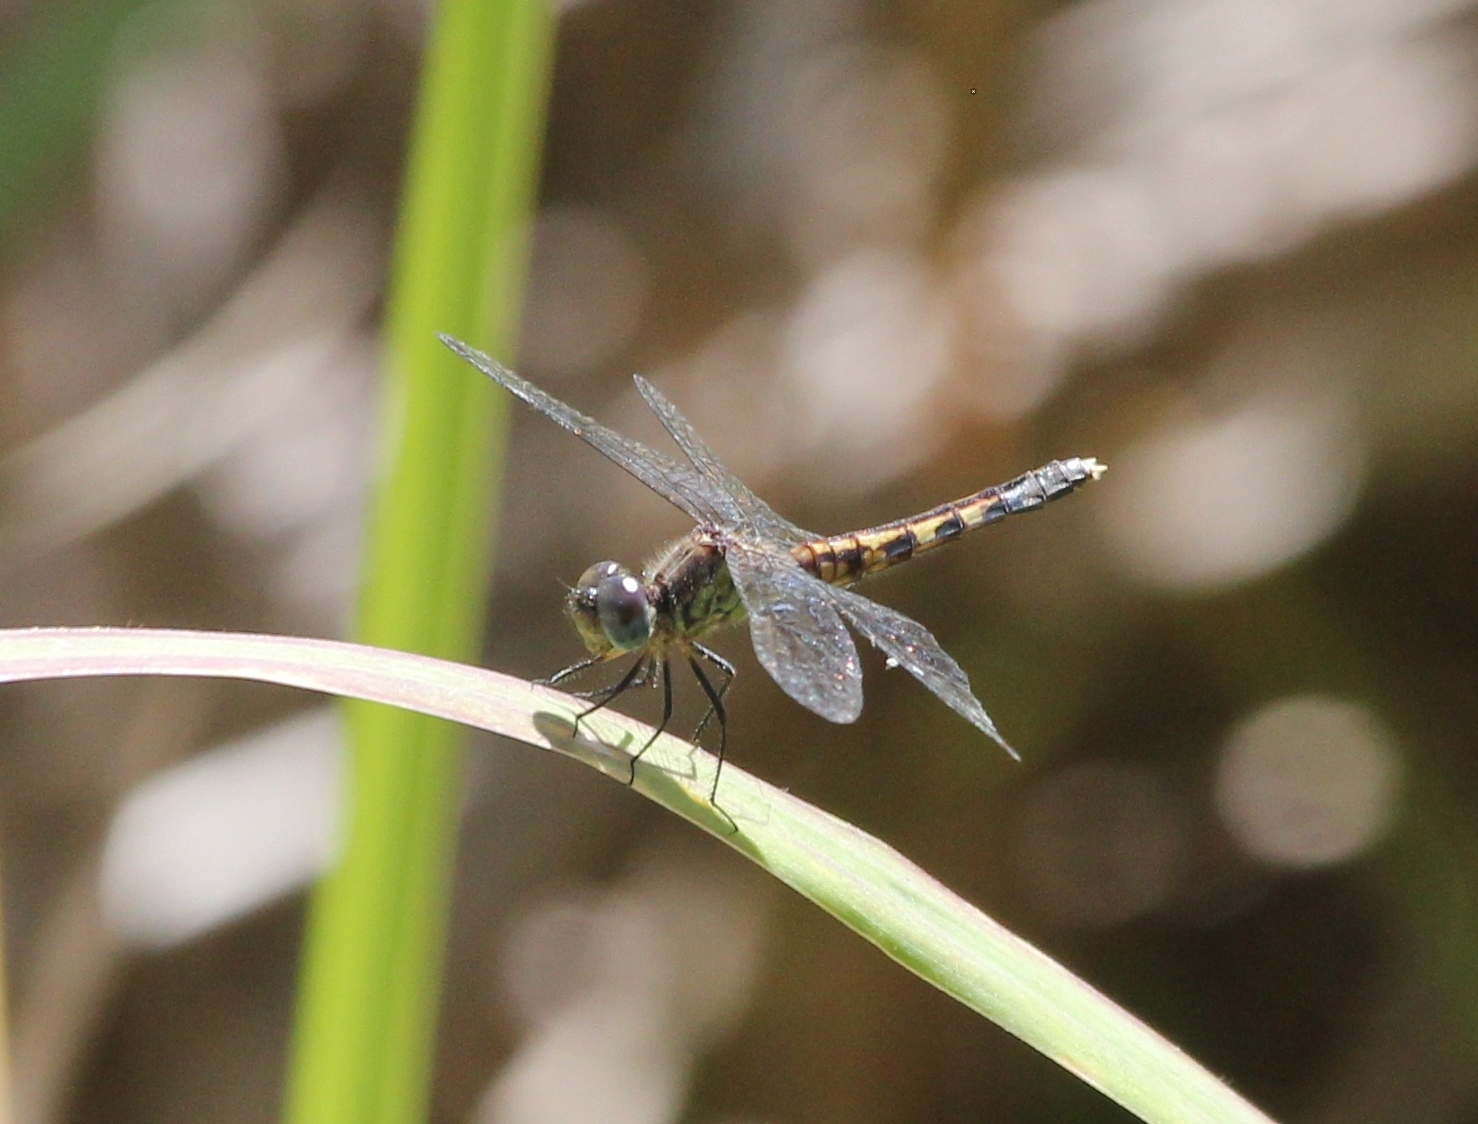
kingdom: Animalia
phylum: Arthropoda
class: Insecta
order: Odonata
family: Libellulidae
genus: Erythrodiplax
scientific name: Erythrodiplax minuscula
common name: Little blue dragonlet
